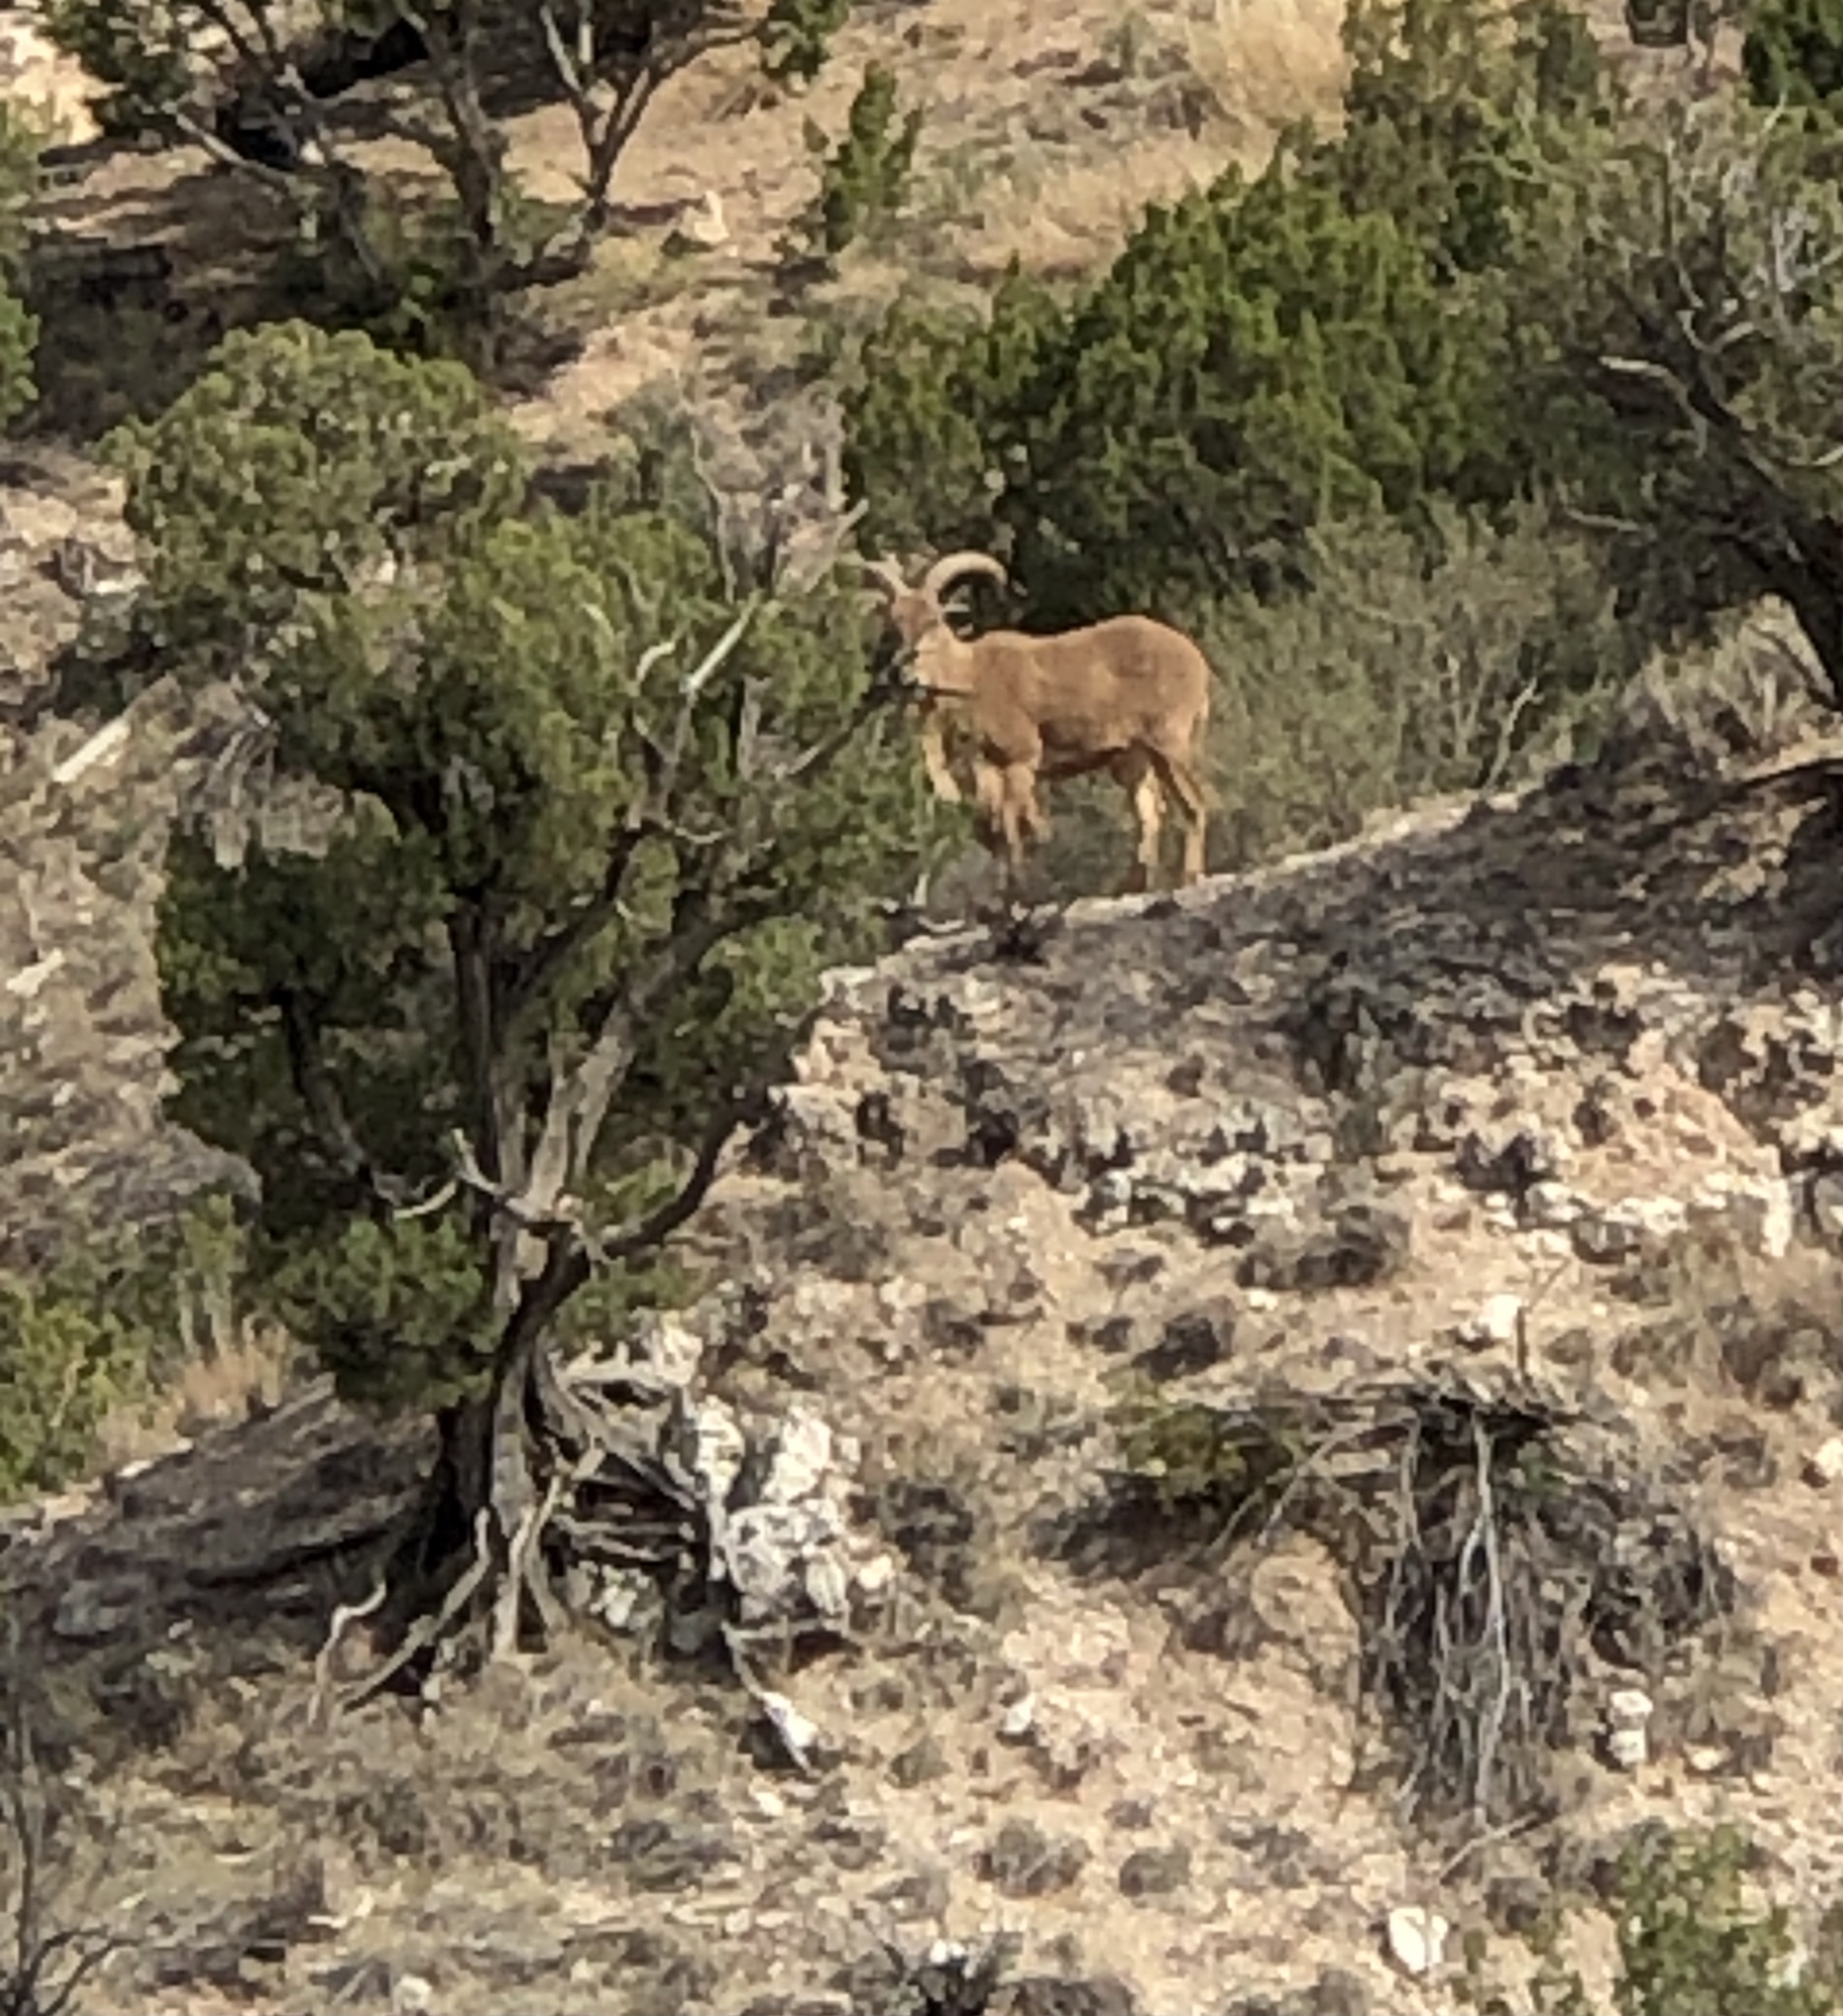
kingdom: Animalia
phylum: Chordata
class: Mammalia
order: Artiodactyla
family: Bovidae
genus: Ammotragus
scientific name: Ammotragus lervia
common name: Barbary sheep
